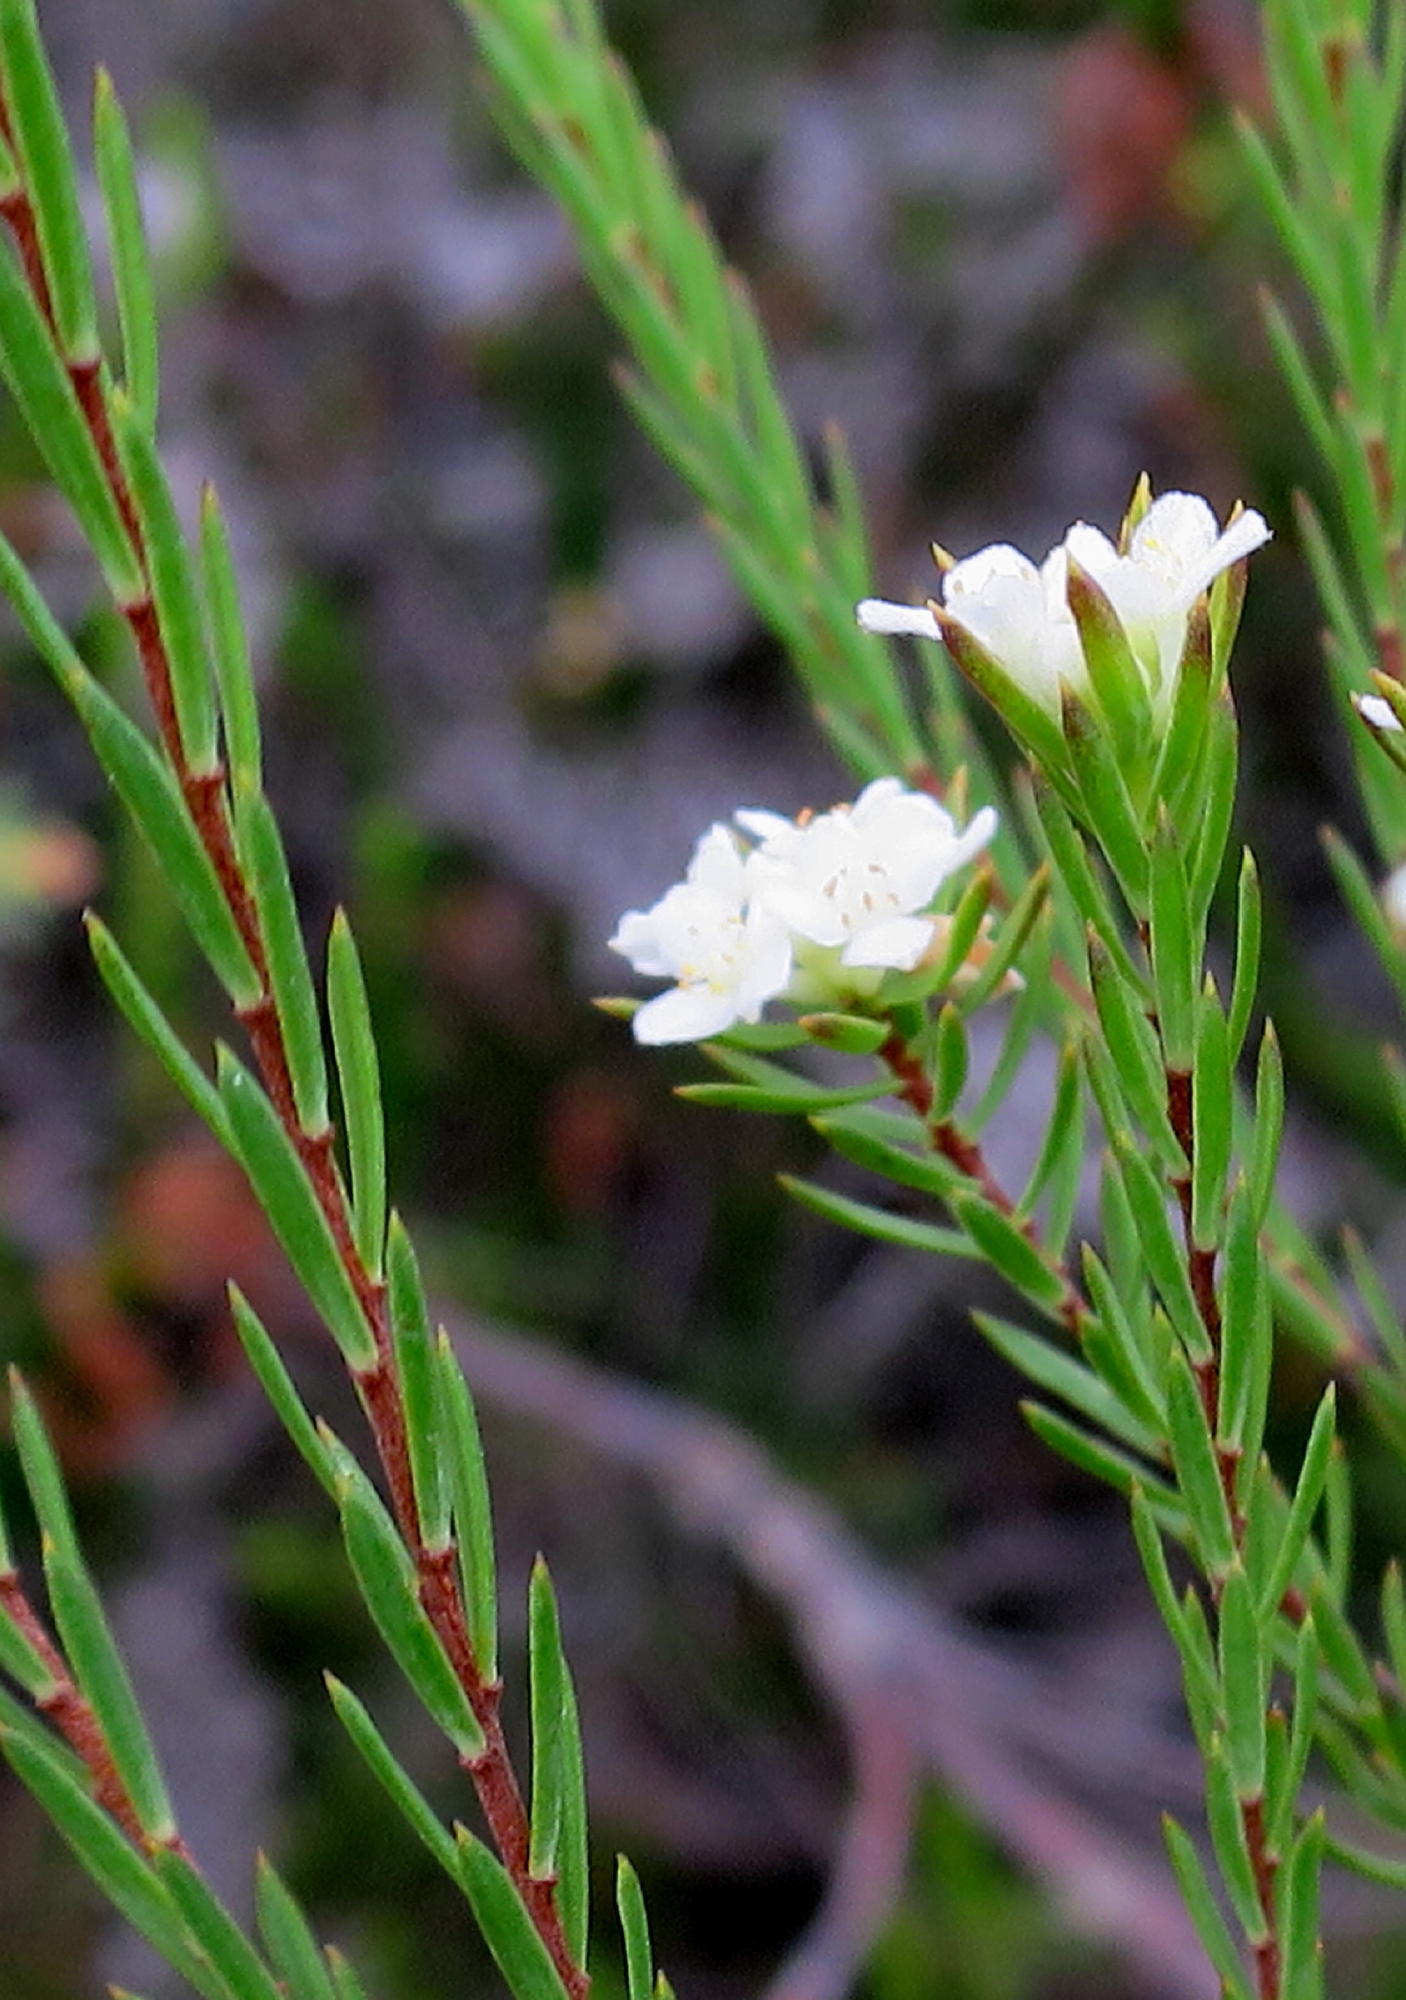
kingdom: Plantae
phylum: Tracheophyta
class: Magnoliopsida
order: Malvales
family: Thymelaeaceae
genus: Lachnaea
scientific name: Lachnaea diosmoides
